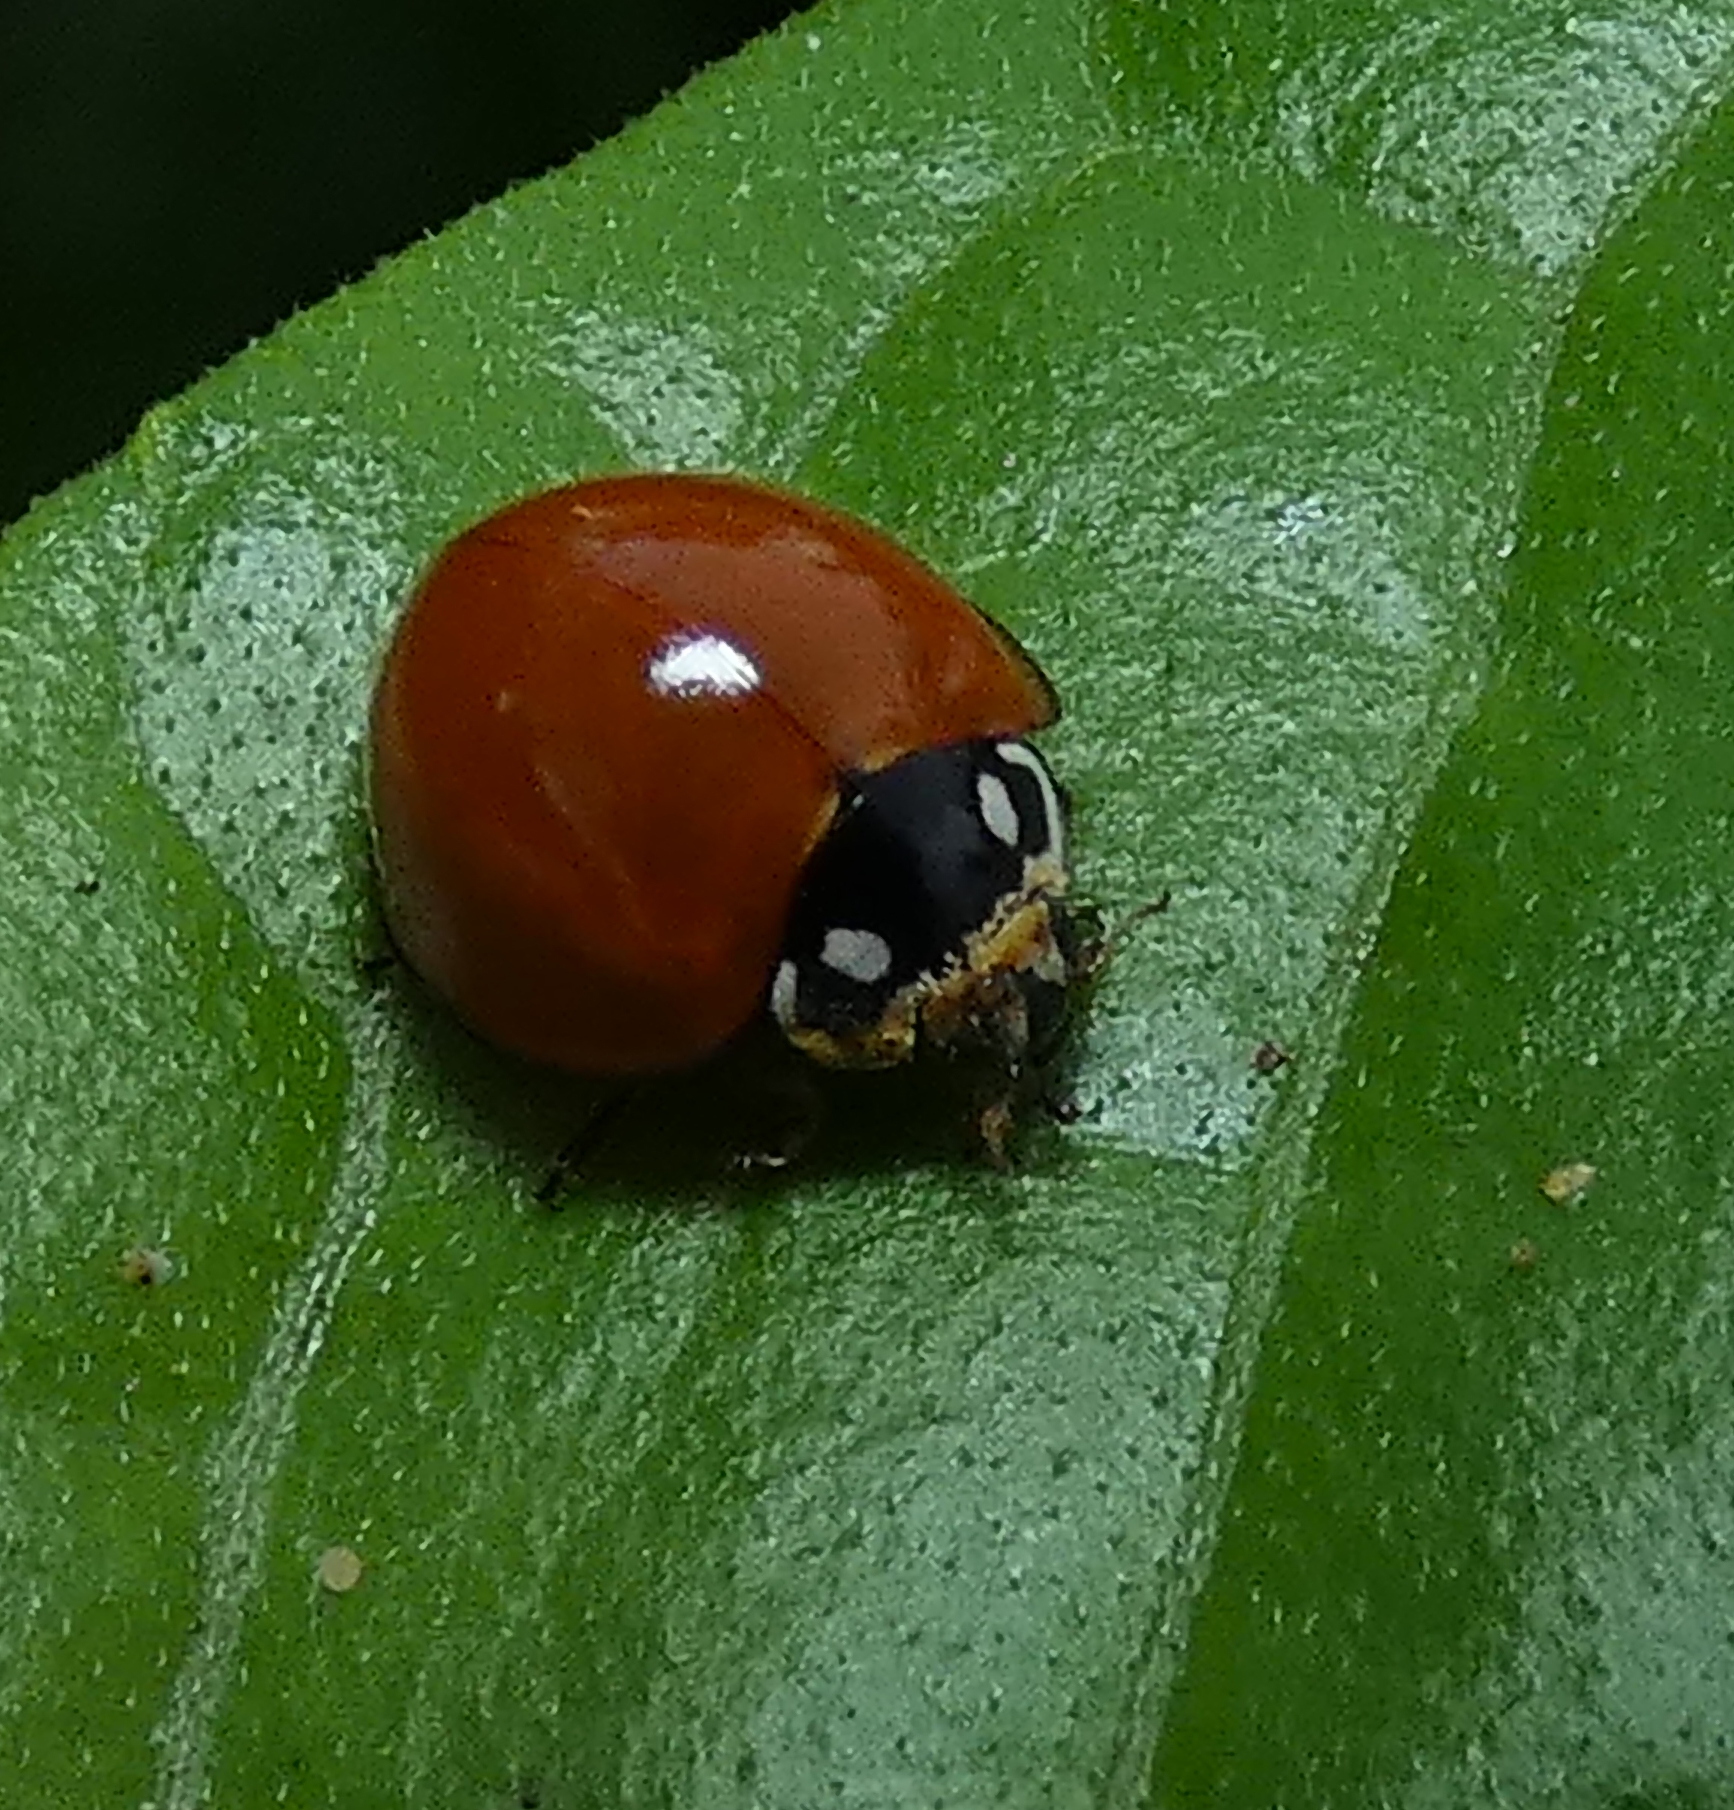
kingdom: Animalia
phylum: Arthropoda
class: Insecta
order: Coleoptera
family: Coccinellidae
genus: Cycloneda
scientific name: Cycloneda sanguinea
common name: Ladybird beetle
